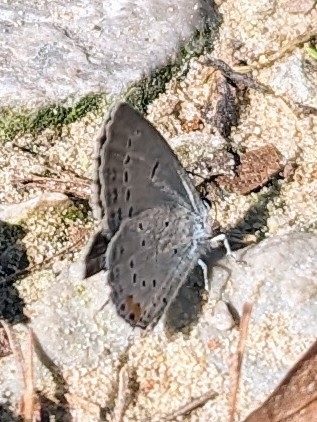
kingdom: Animalia
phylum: Arthropoda
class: Insecta
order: Lepidoptera
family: Lycaenidae
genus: Elkalyce
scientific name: Elkalyce comyntas
